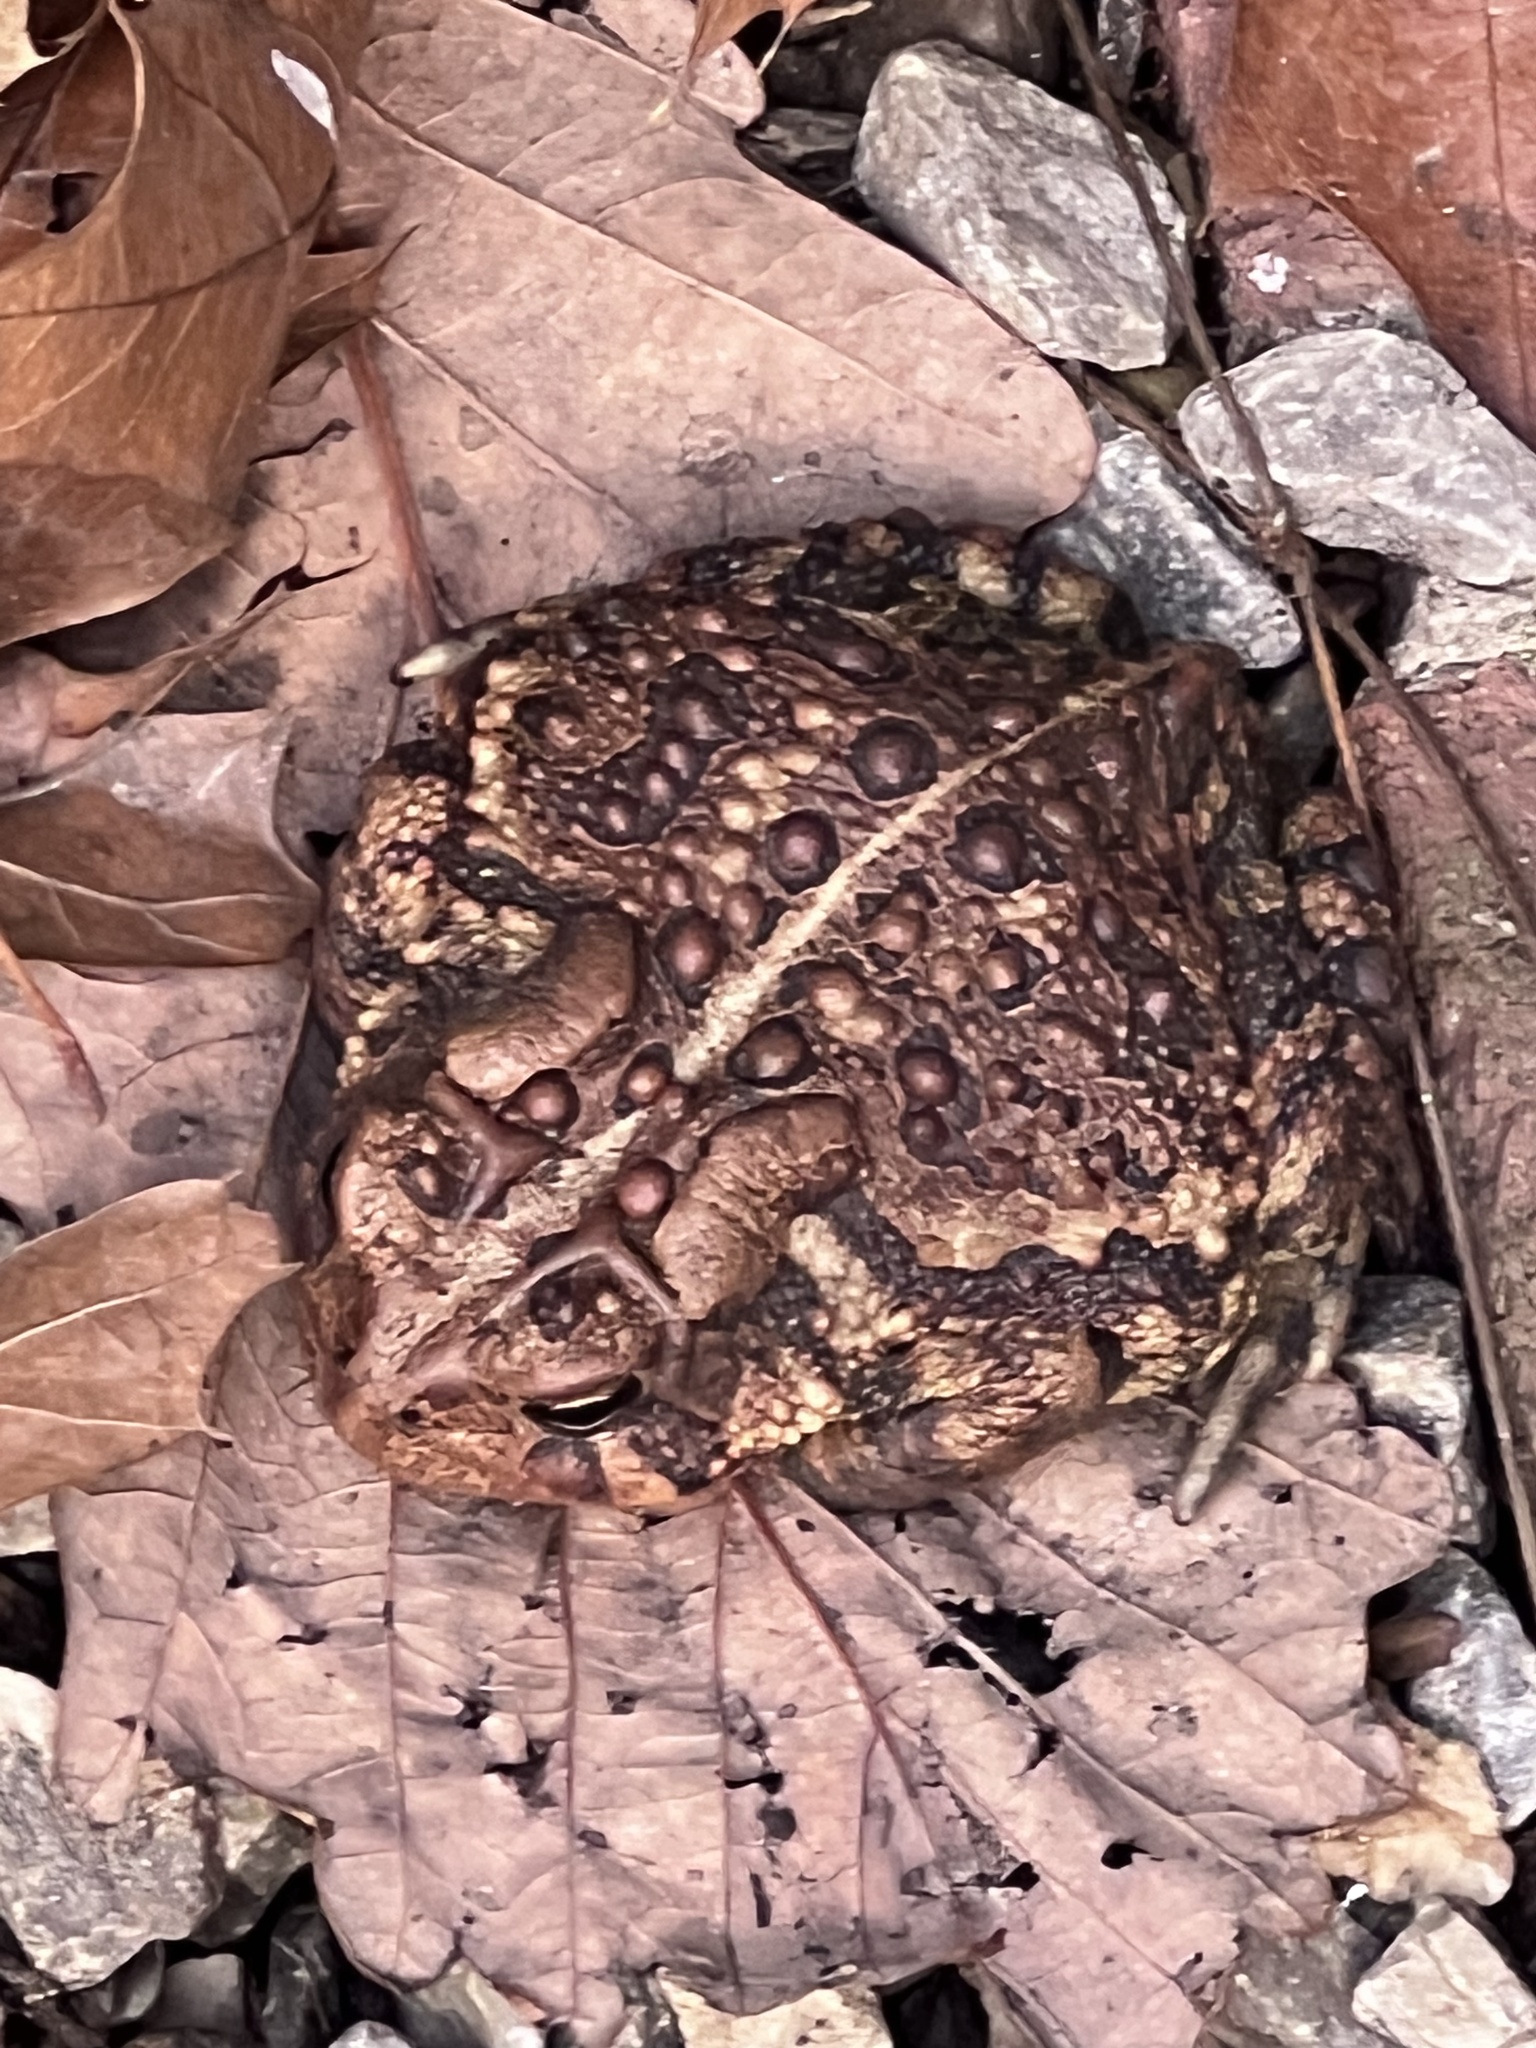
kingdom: Animalia
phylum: Chordata
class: Amphibia
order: Anura
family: Bufonidae
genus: Anaxyrus
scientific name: Anaxyrus americanus
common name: American toad
